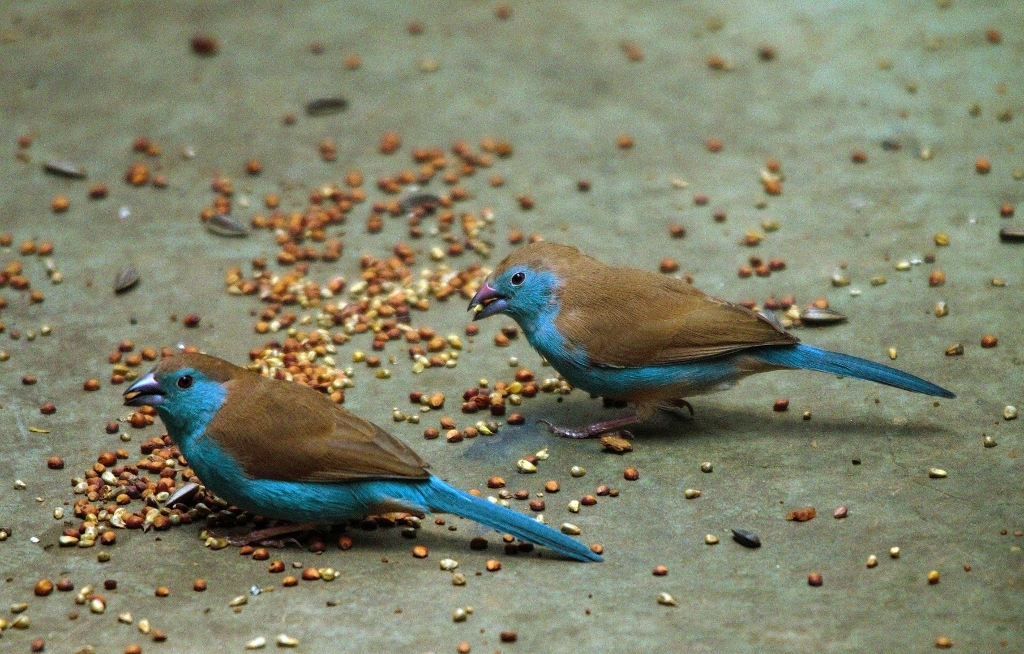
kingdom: Animalia
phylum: Chordata
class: Aves
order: Passeriformes
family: Estrildidae
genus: Uraeginthus
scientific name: Uraeginthus angolensis
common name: Blue waxbill
